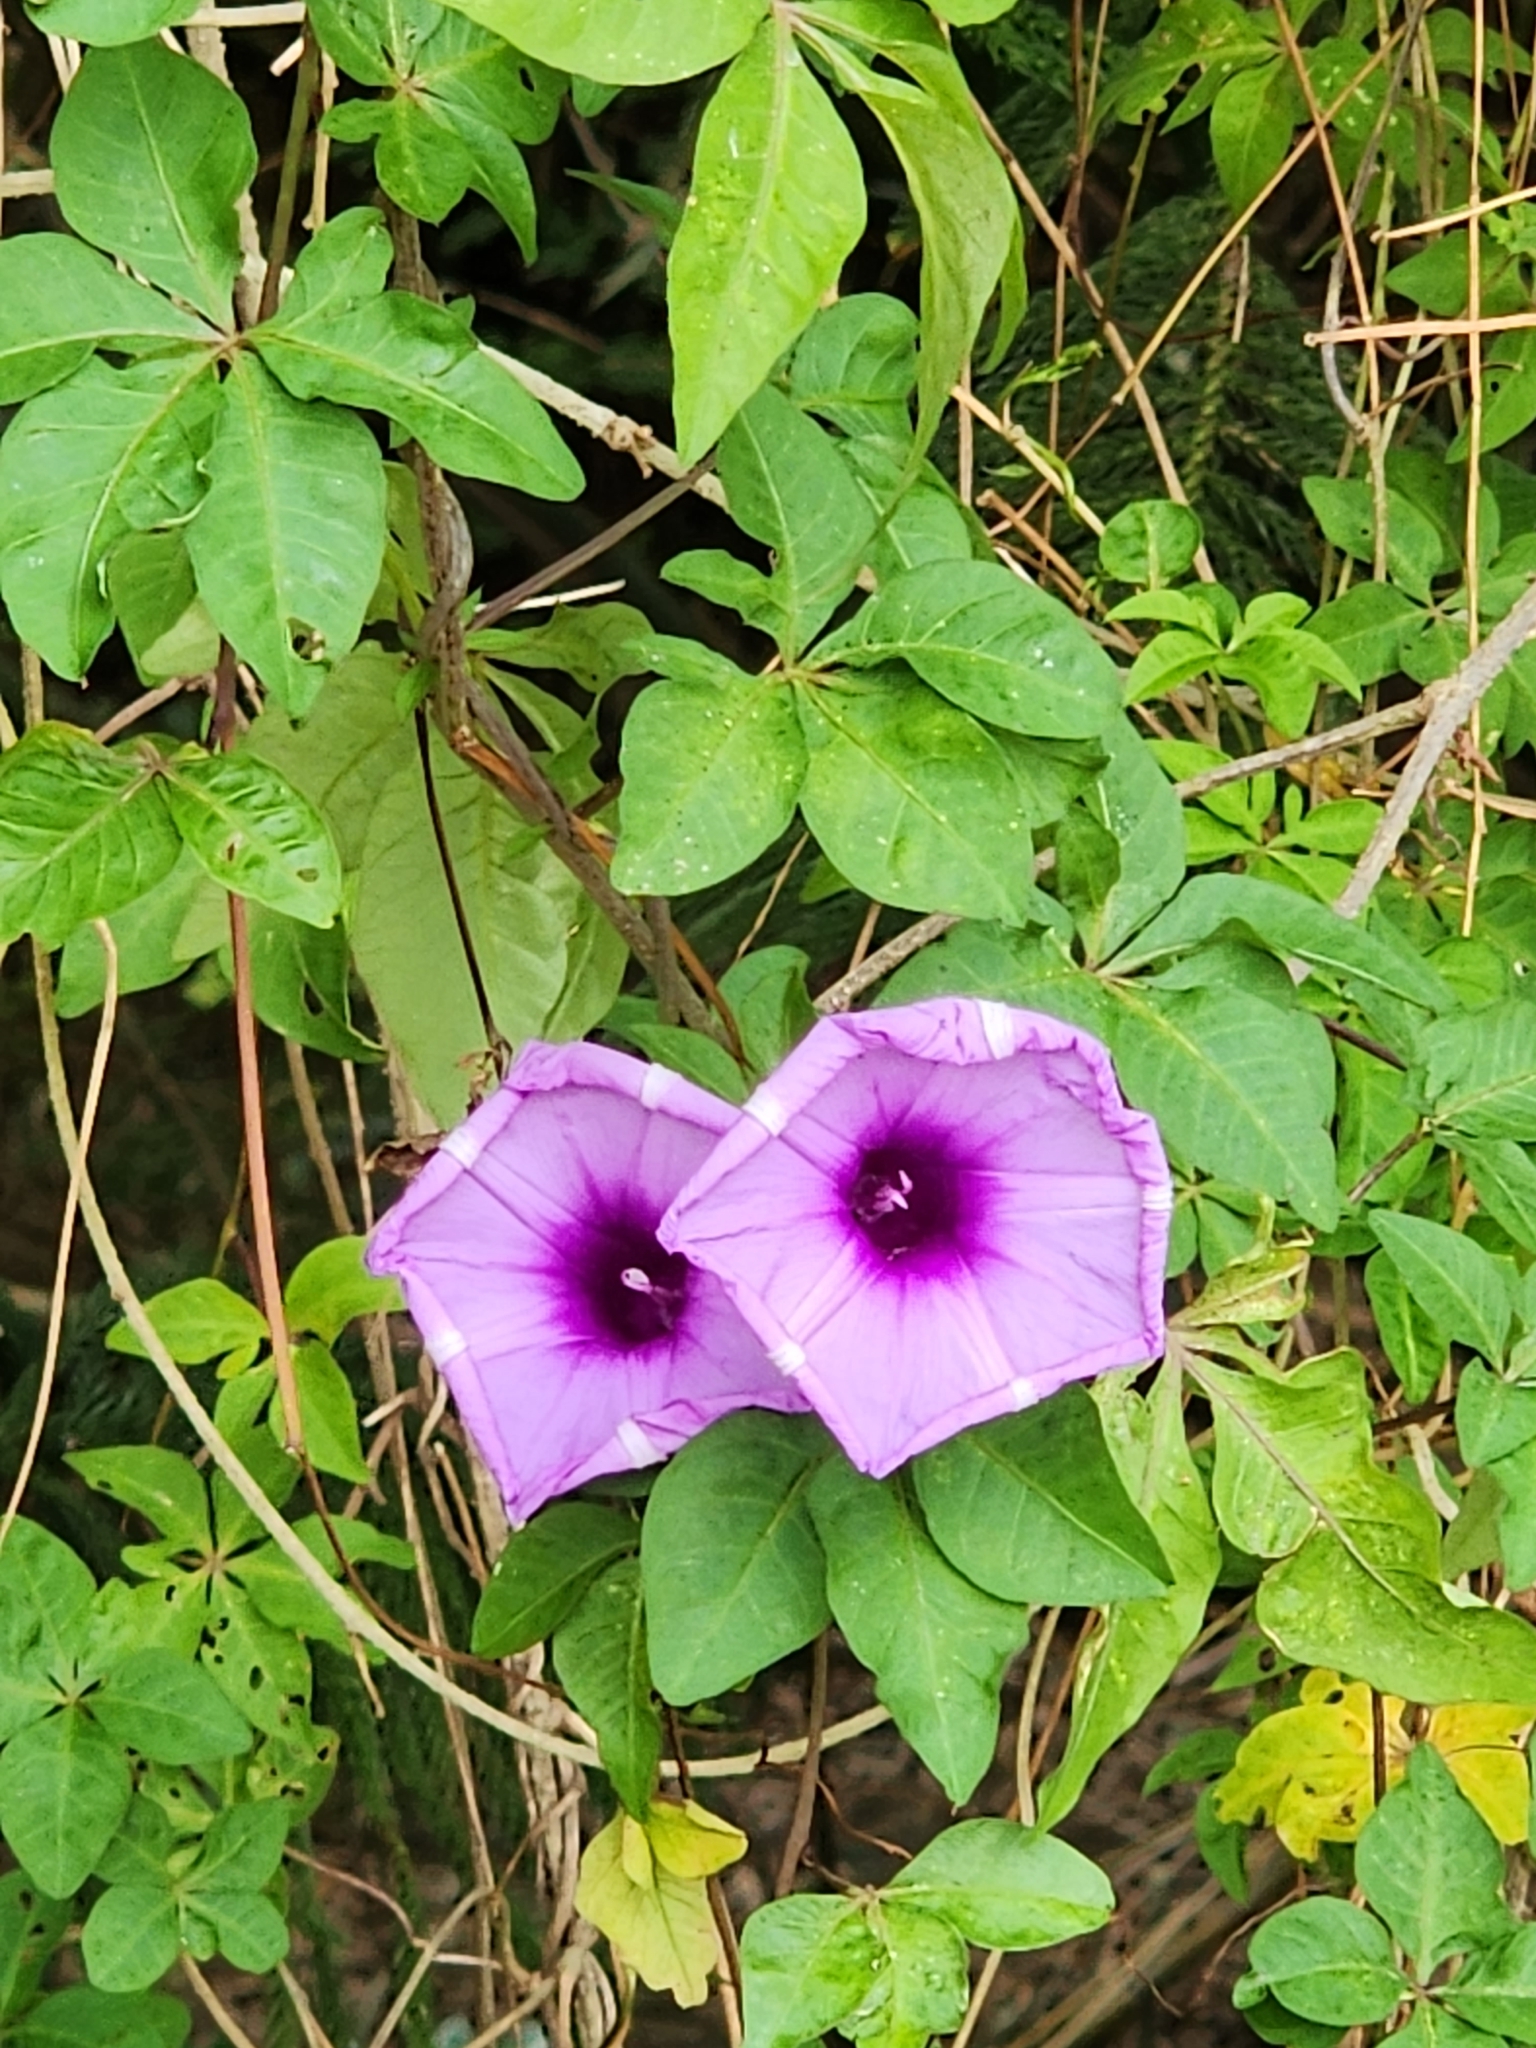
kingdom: Plantae
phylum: Tracheophyta
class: Magnoliopsida
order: Solanales
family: Convolvulaceae
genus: Ipomoea
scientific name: Ipomoea cairica
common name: Mile a minute vine
